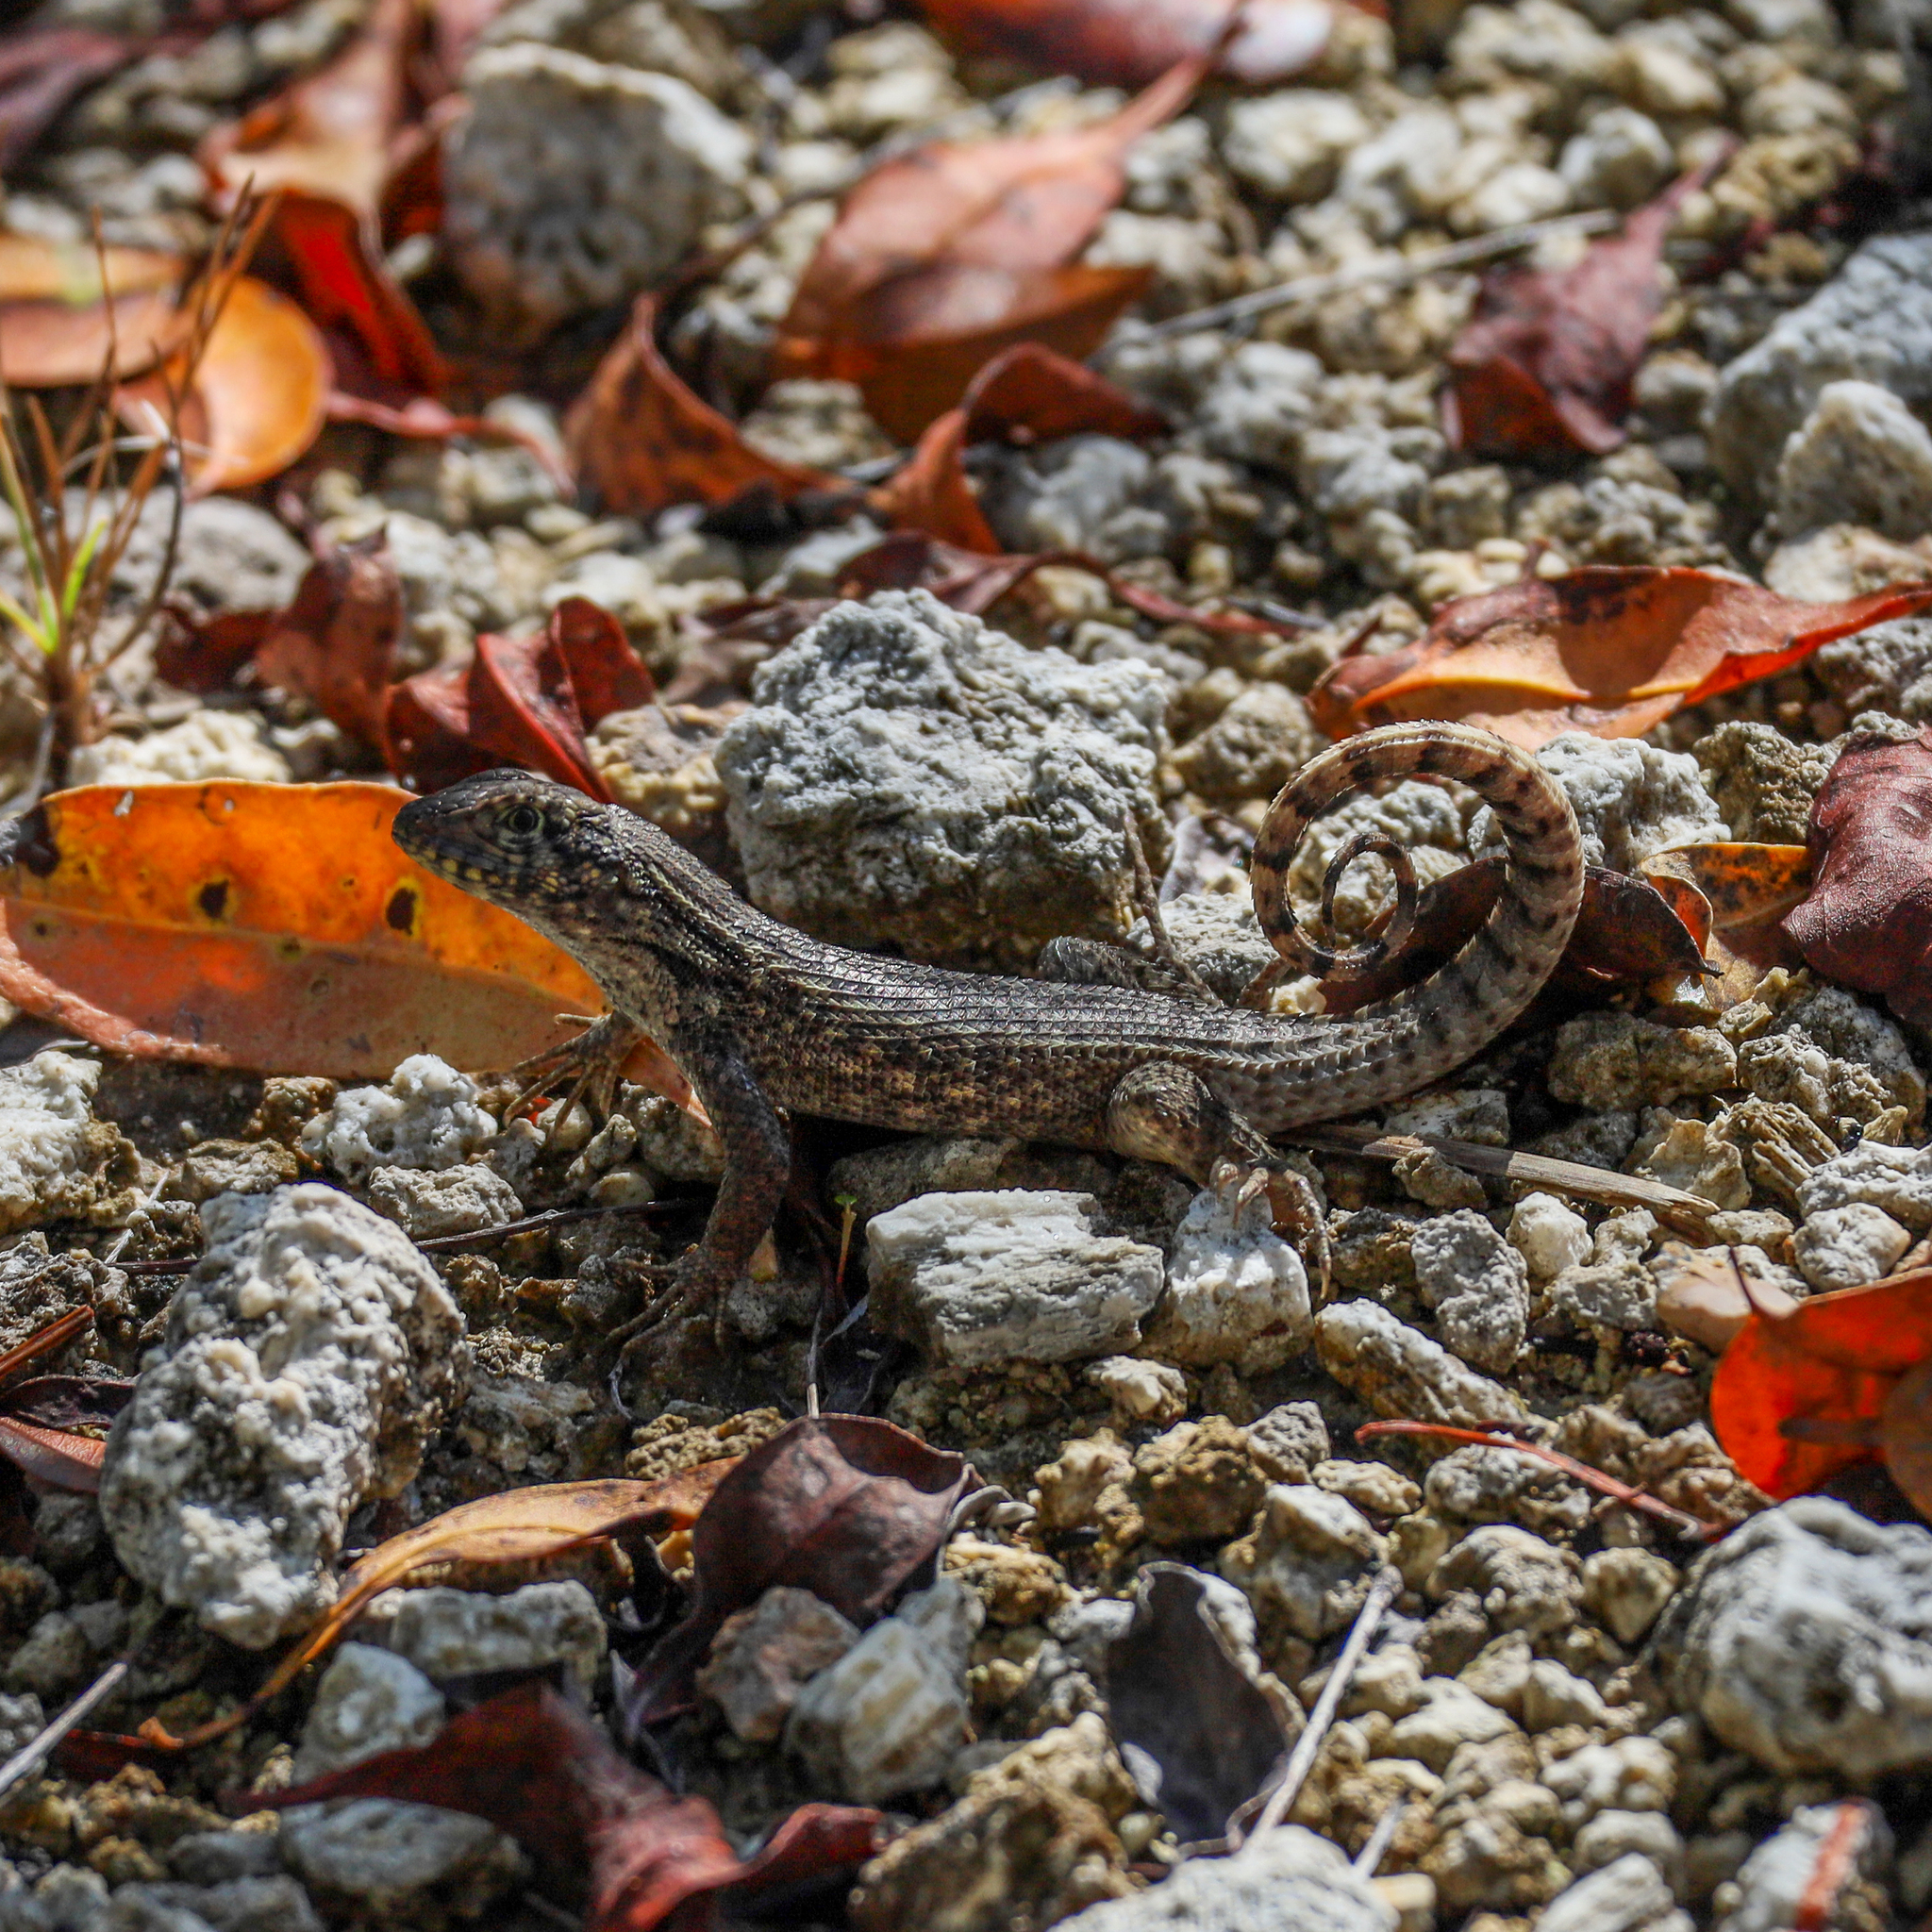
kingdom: Animalia
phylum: Chordata
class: Squamata
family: Leiocephalidae
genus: Leiocephalus
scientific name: Leiocephalus carinatus
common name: Northern curly-tailed lizard
